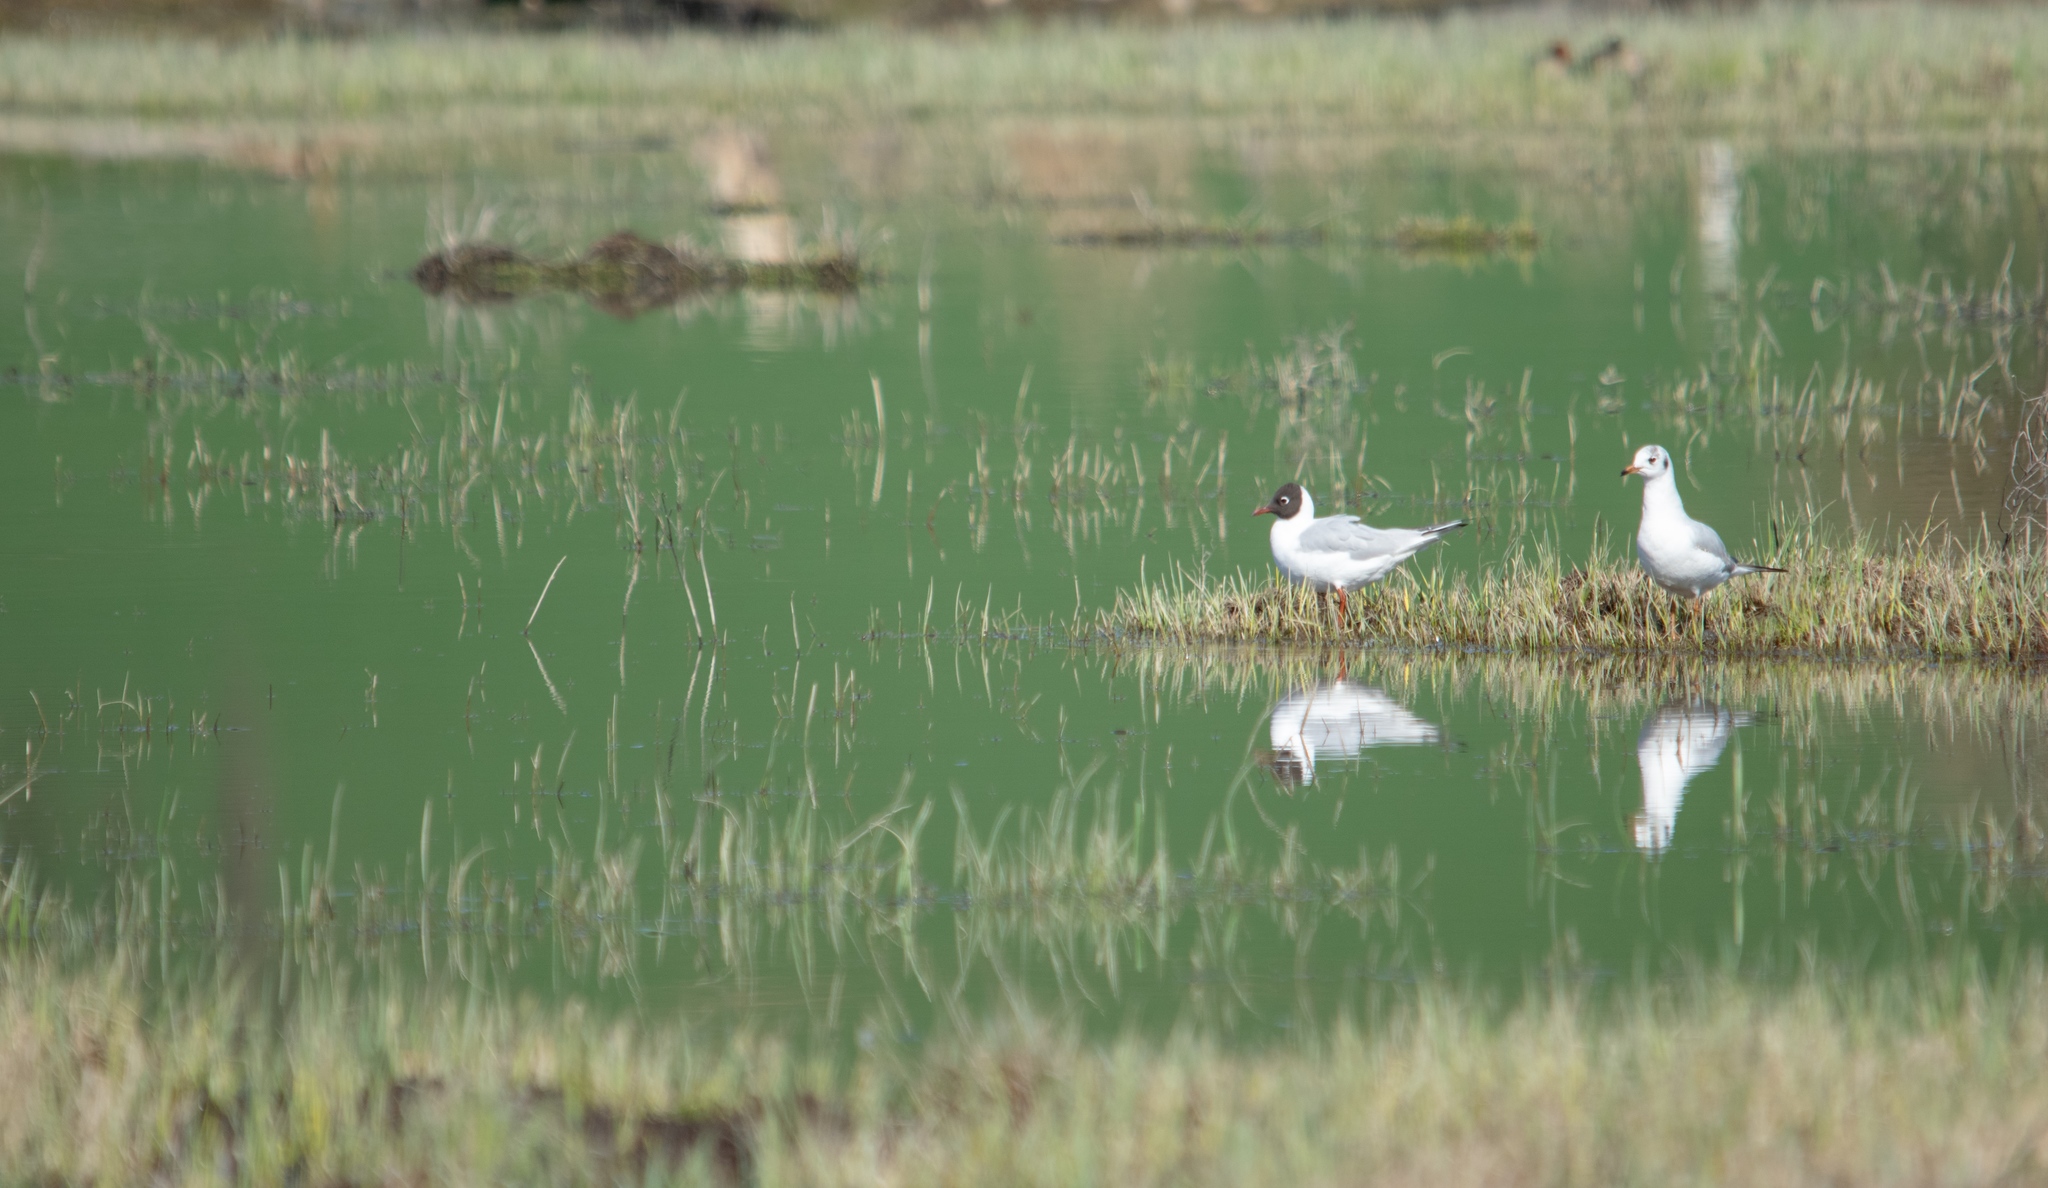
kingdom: Animalia
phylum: Chordata
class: Aves
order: Charadriiformes
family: Laridae
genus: Chroicocephalus
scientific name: Chroicocephalus ridibundus
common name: Black-headed gull
